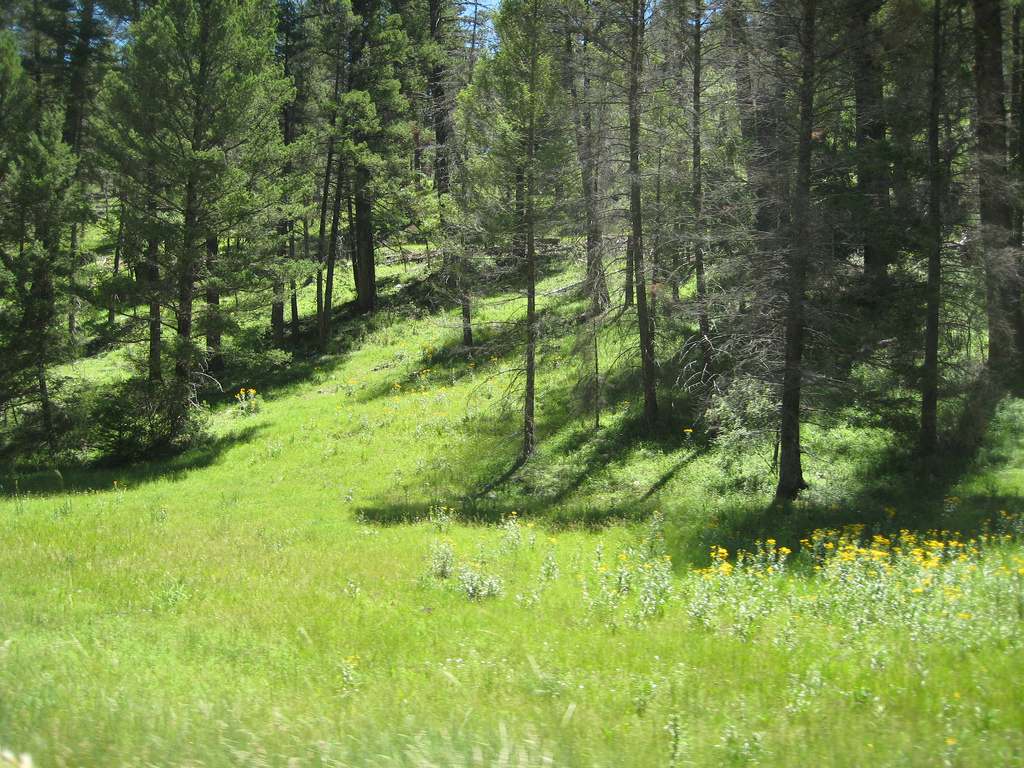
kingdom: Plantae
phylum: Tracheophyta
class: Pinopsida
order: Pinales
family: Pinaceae
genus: Pseudotsuga
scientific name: Pseudotsuga menziesii
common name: Douglas fir
